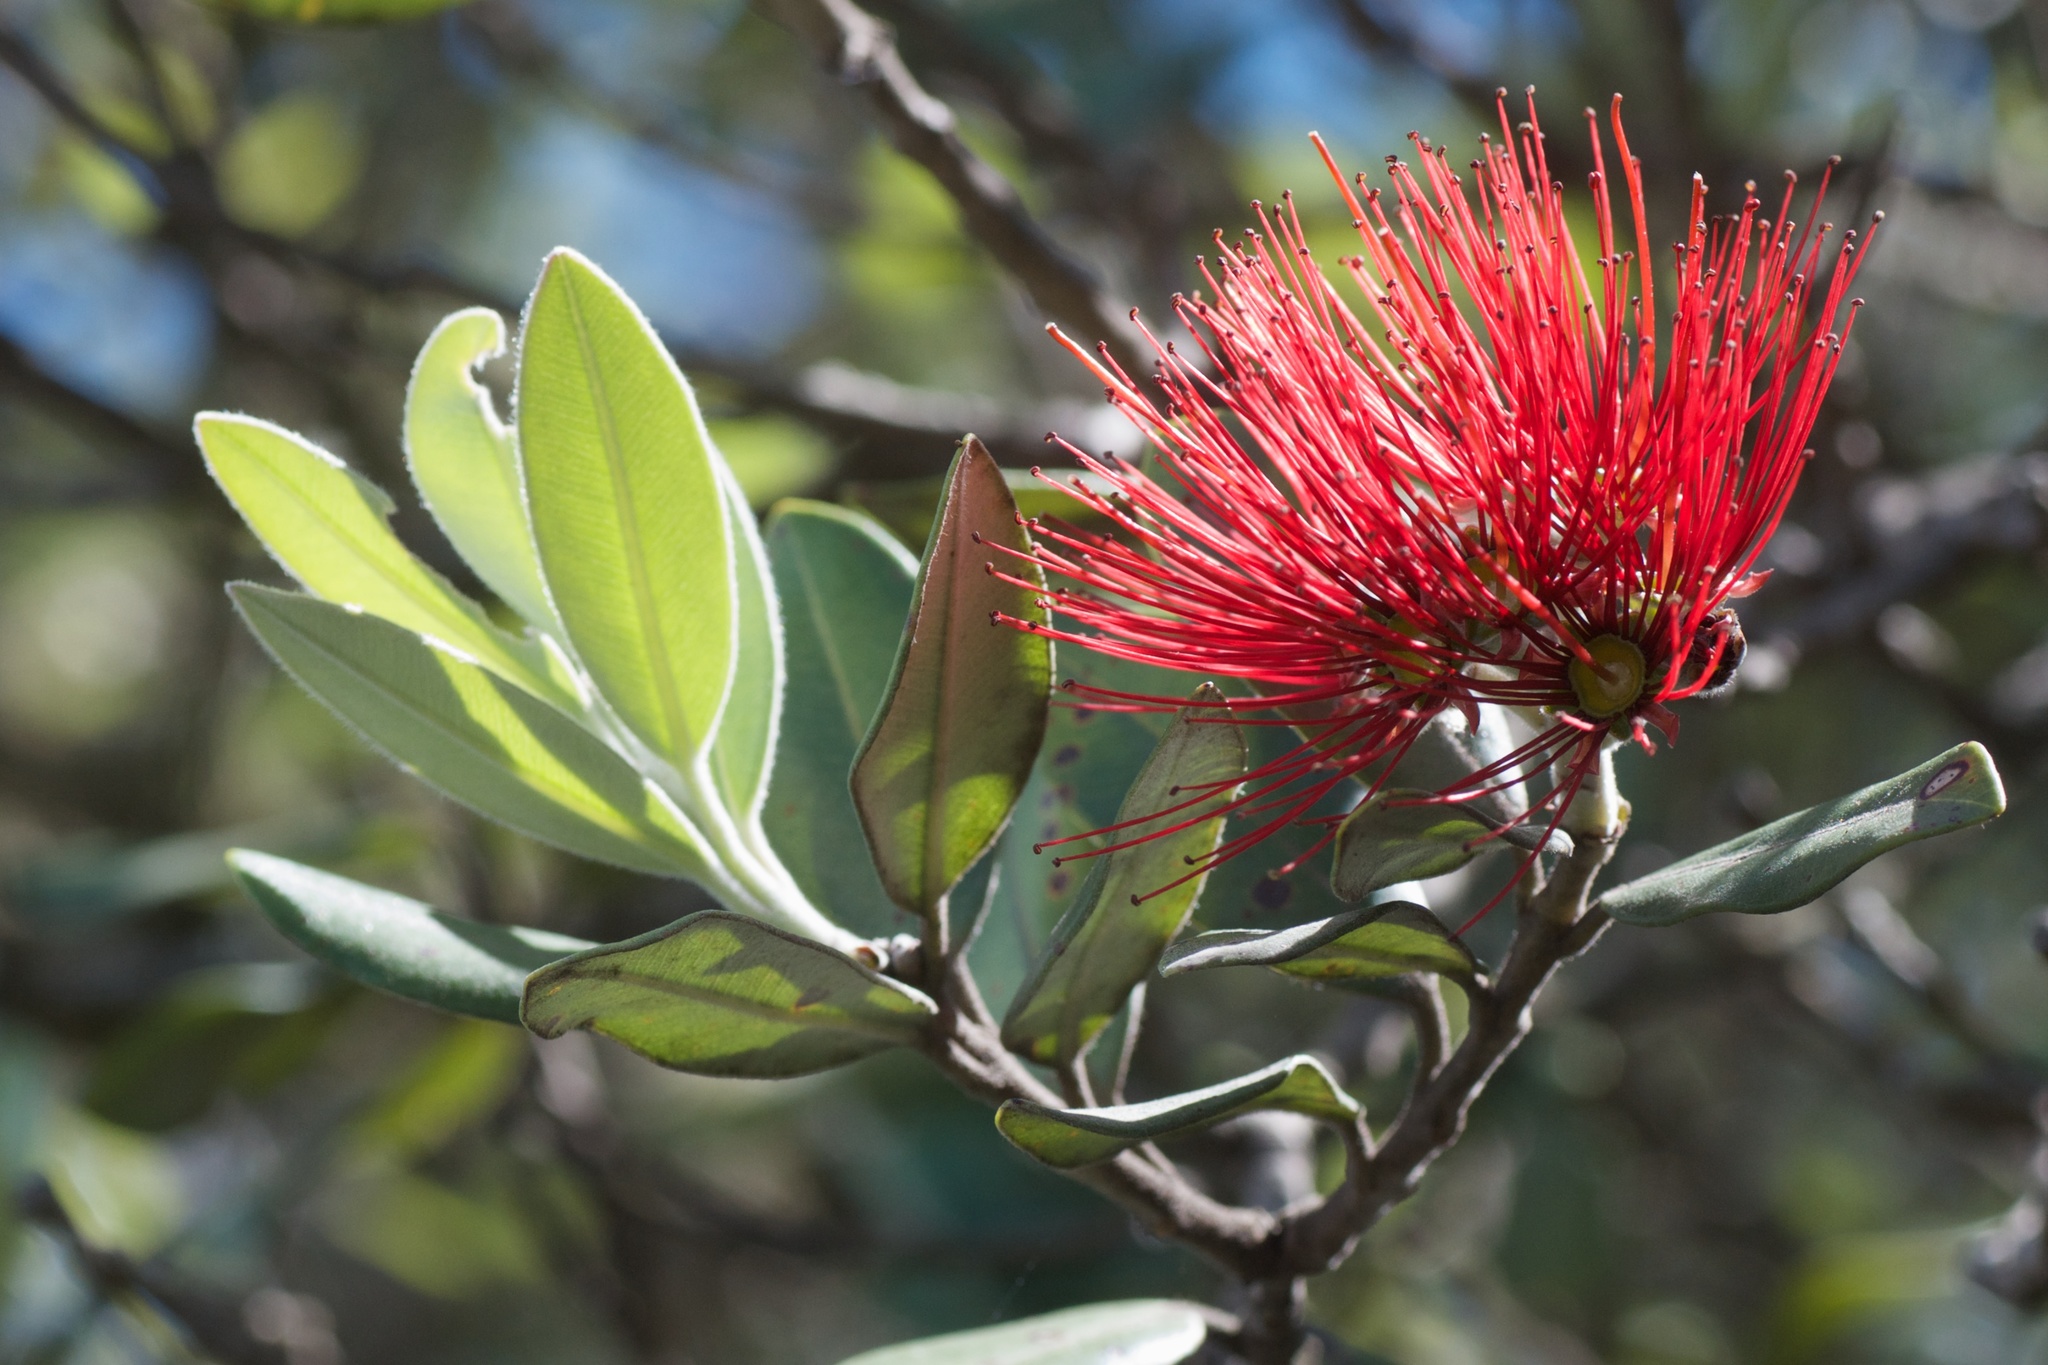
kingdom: Plantae
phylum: Tracheophyta
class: Magnoliopsida
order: Myrtales
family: Myrtaceae
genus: Metrosideros
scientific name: Metrosideros excelsa
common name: New zealand christmastree
